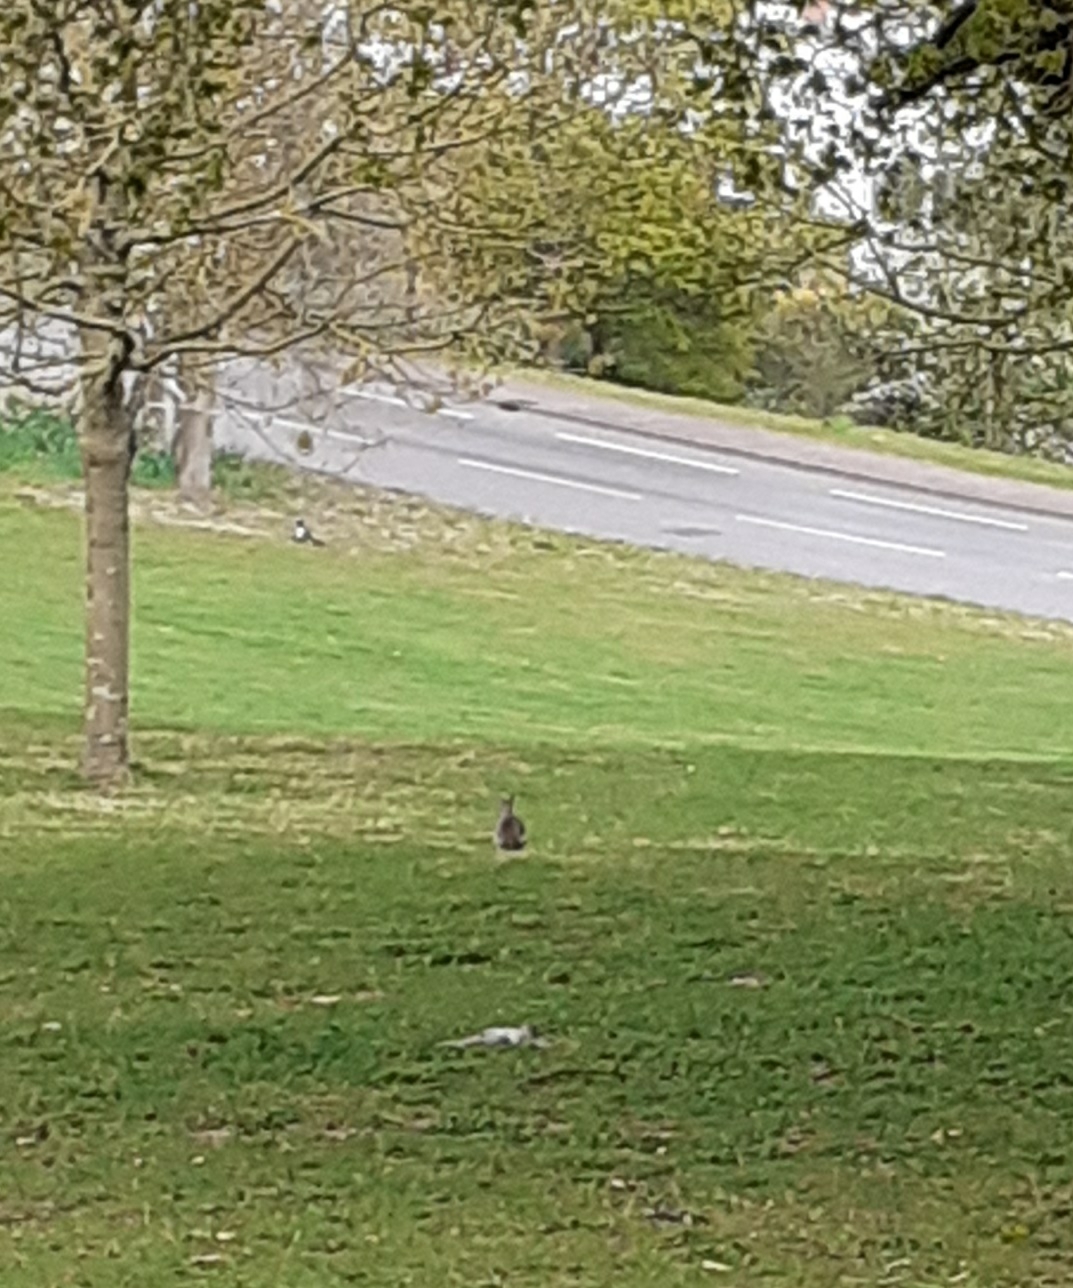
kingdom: Animalia
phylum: Chordata
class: Mammalia
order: Lagomorpha
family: Leporidae
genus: Oryctolagus
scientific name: Oryctolagus cuniculus
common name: European rabbit
